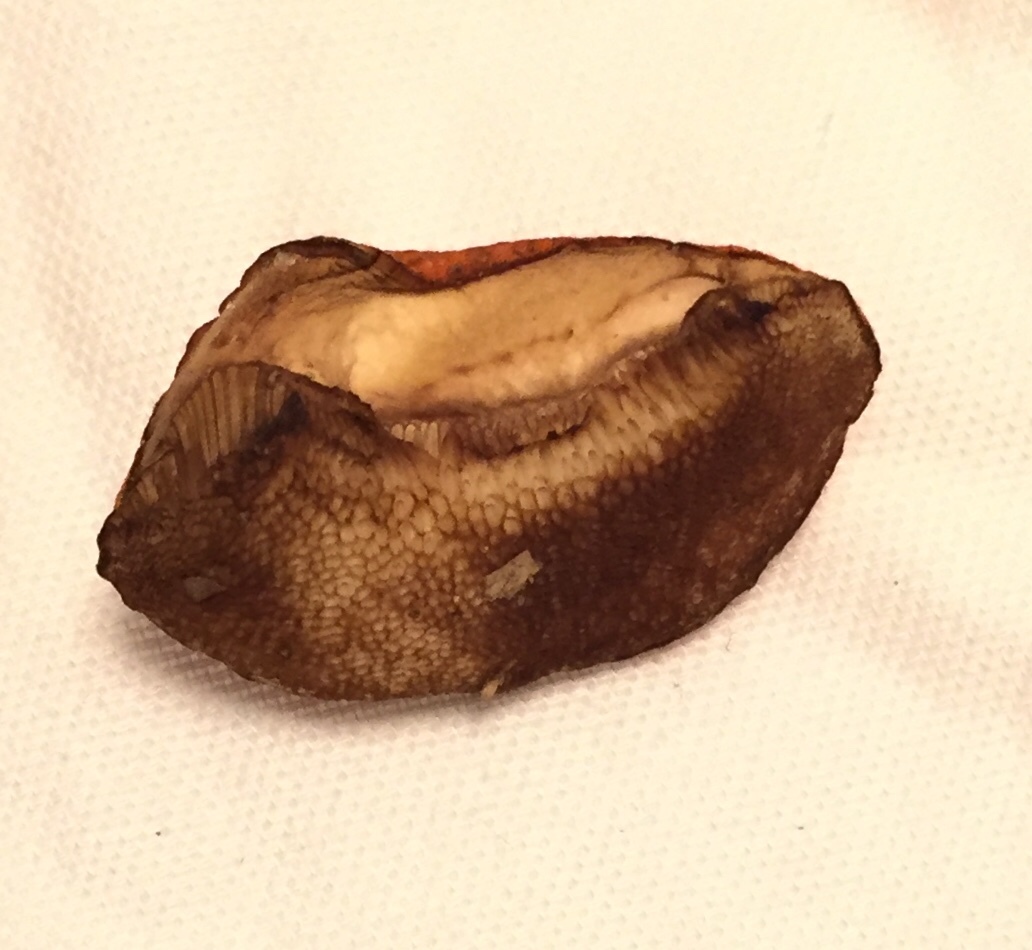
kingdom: Fungi
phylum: Basidiomycota
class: Agaricomycetes
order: Boletales
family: Boletaceae
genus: Tylopilus
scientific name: Tylopilus balloui
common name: Burnt-orange bolete
